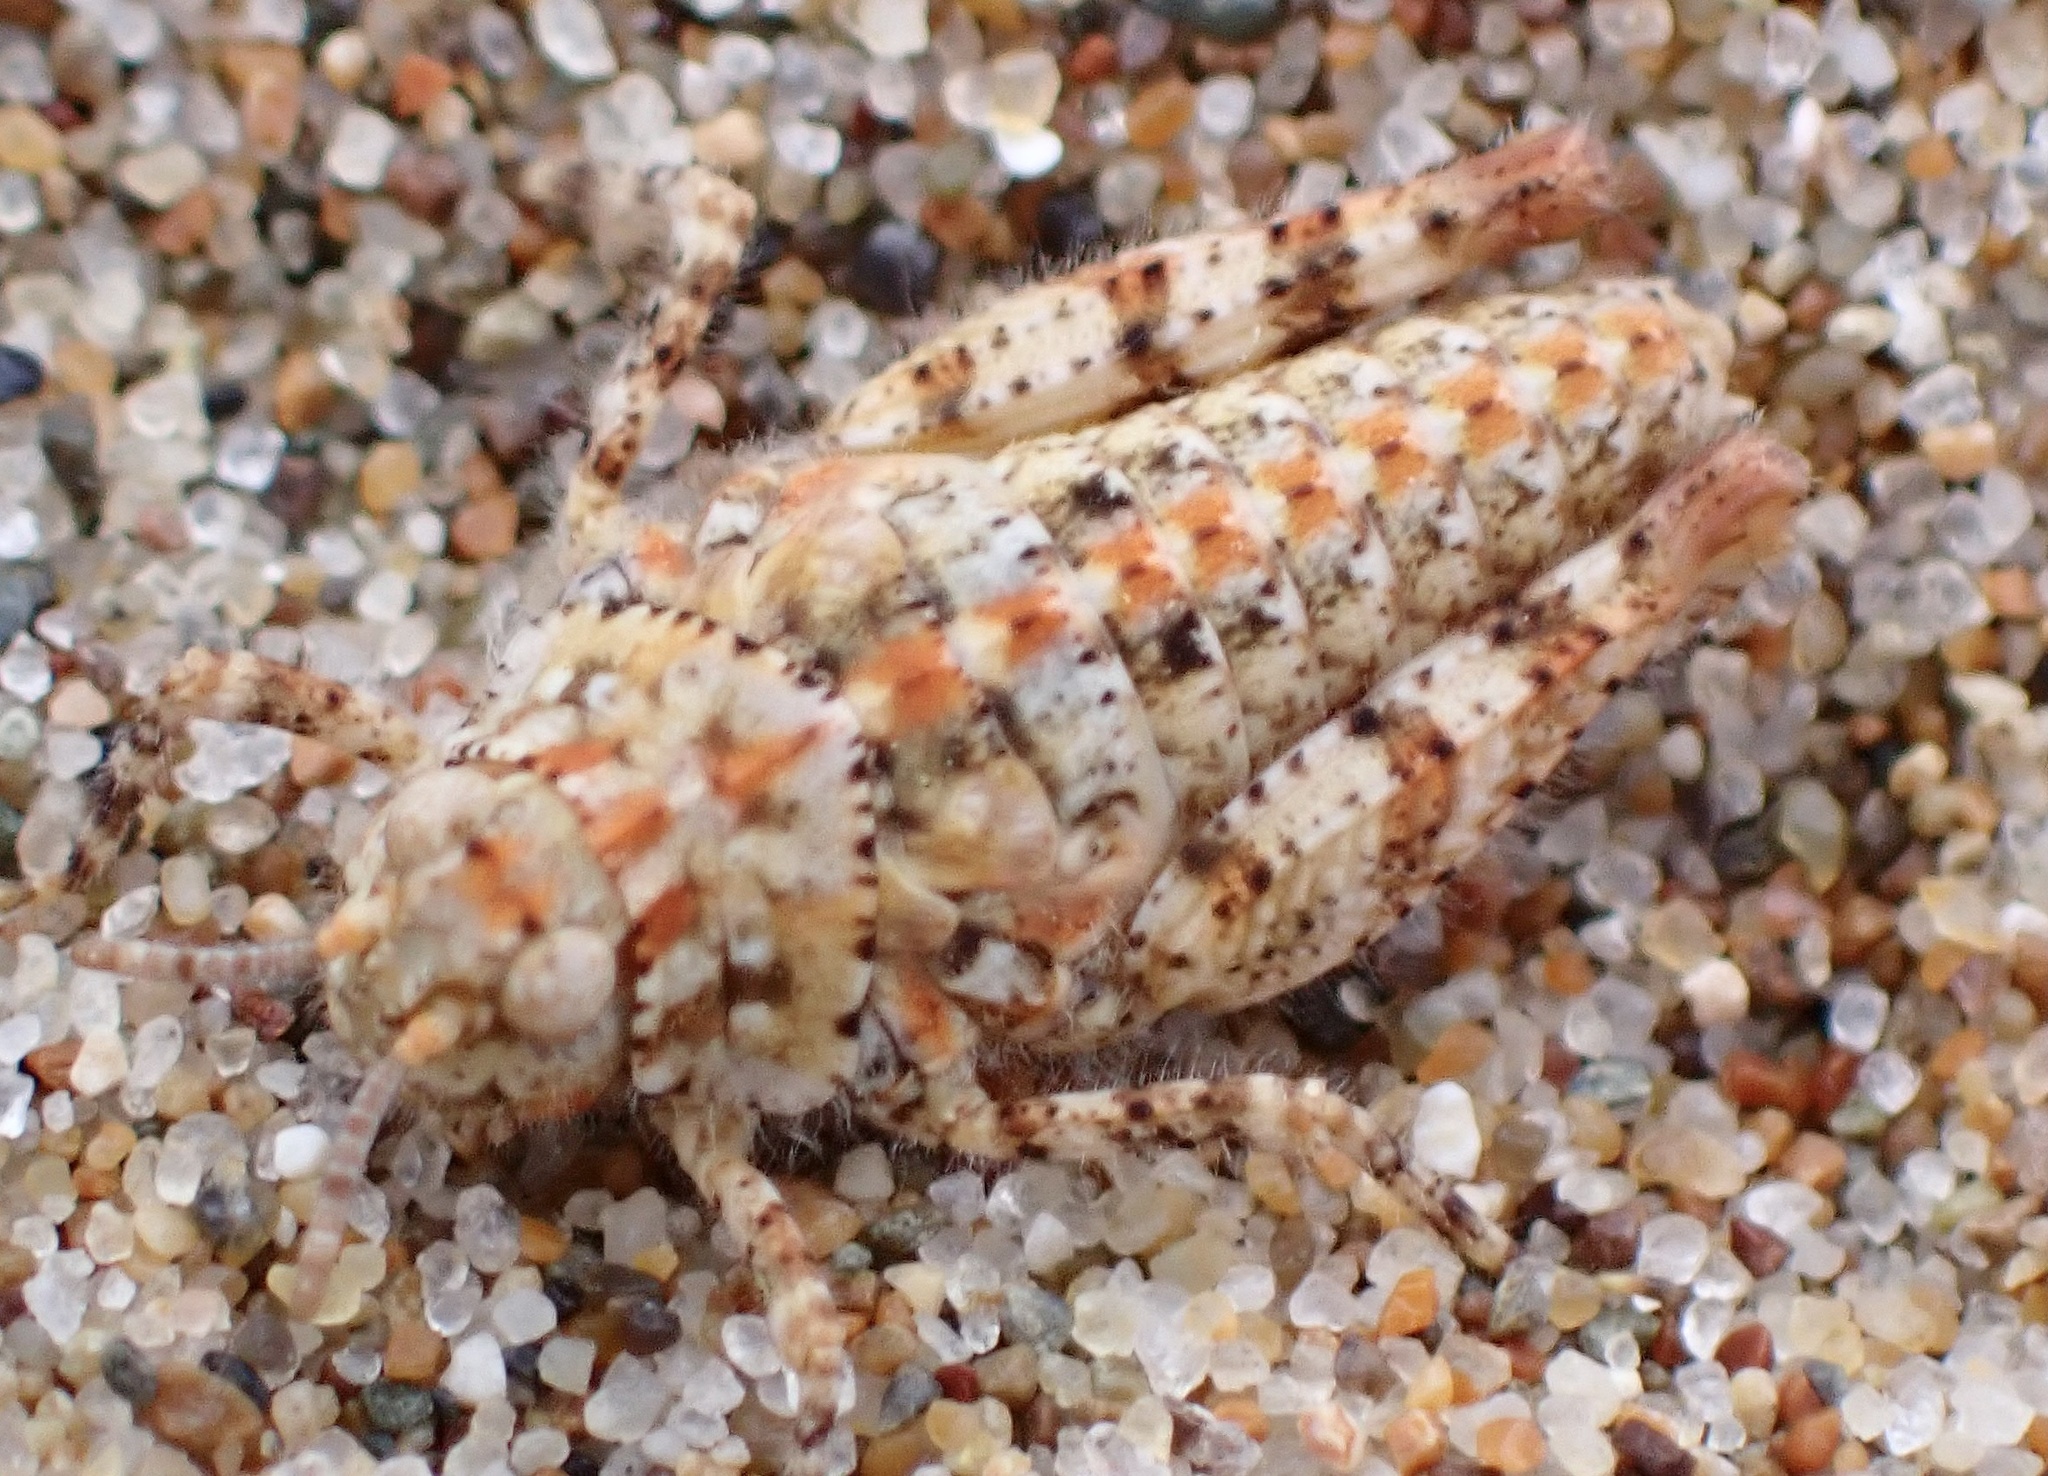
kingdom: Animalia
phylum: Arthropoda
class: Insecta
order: Orthoptera
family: Acrididae
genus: Microtes
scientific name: Microtes pogonata
